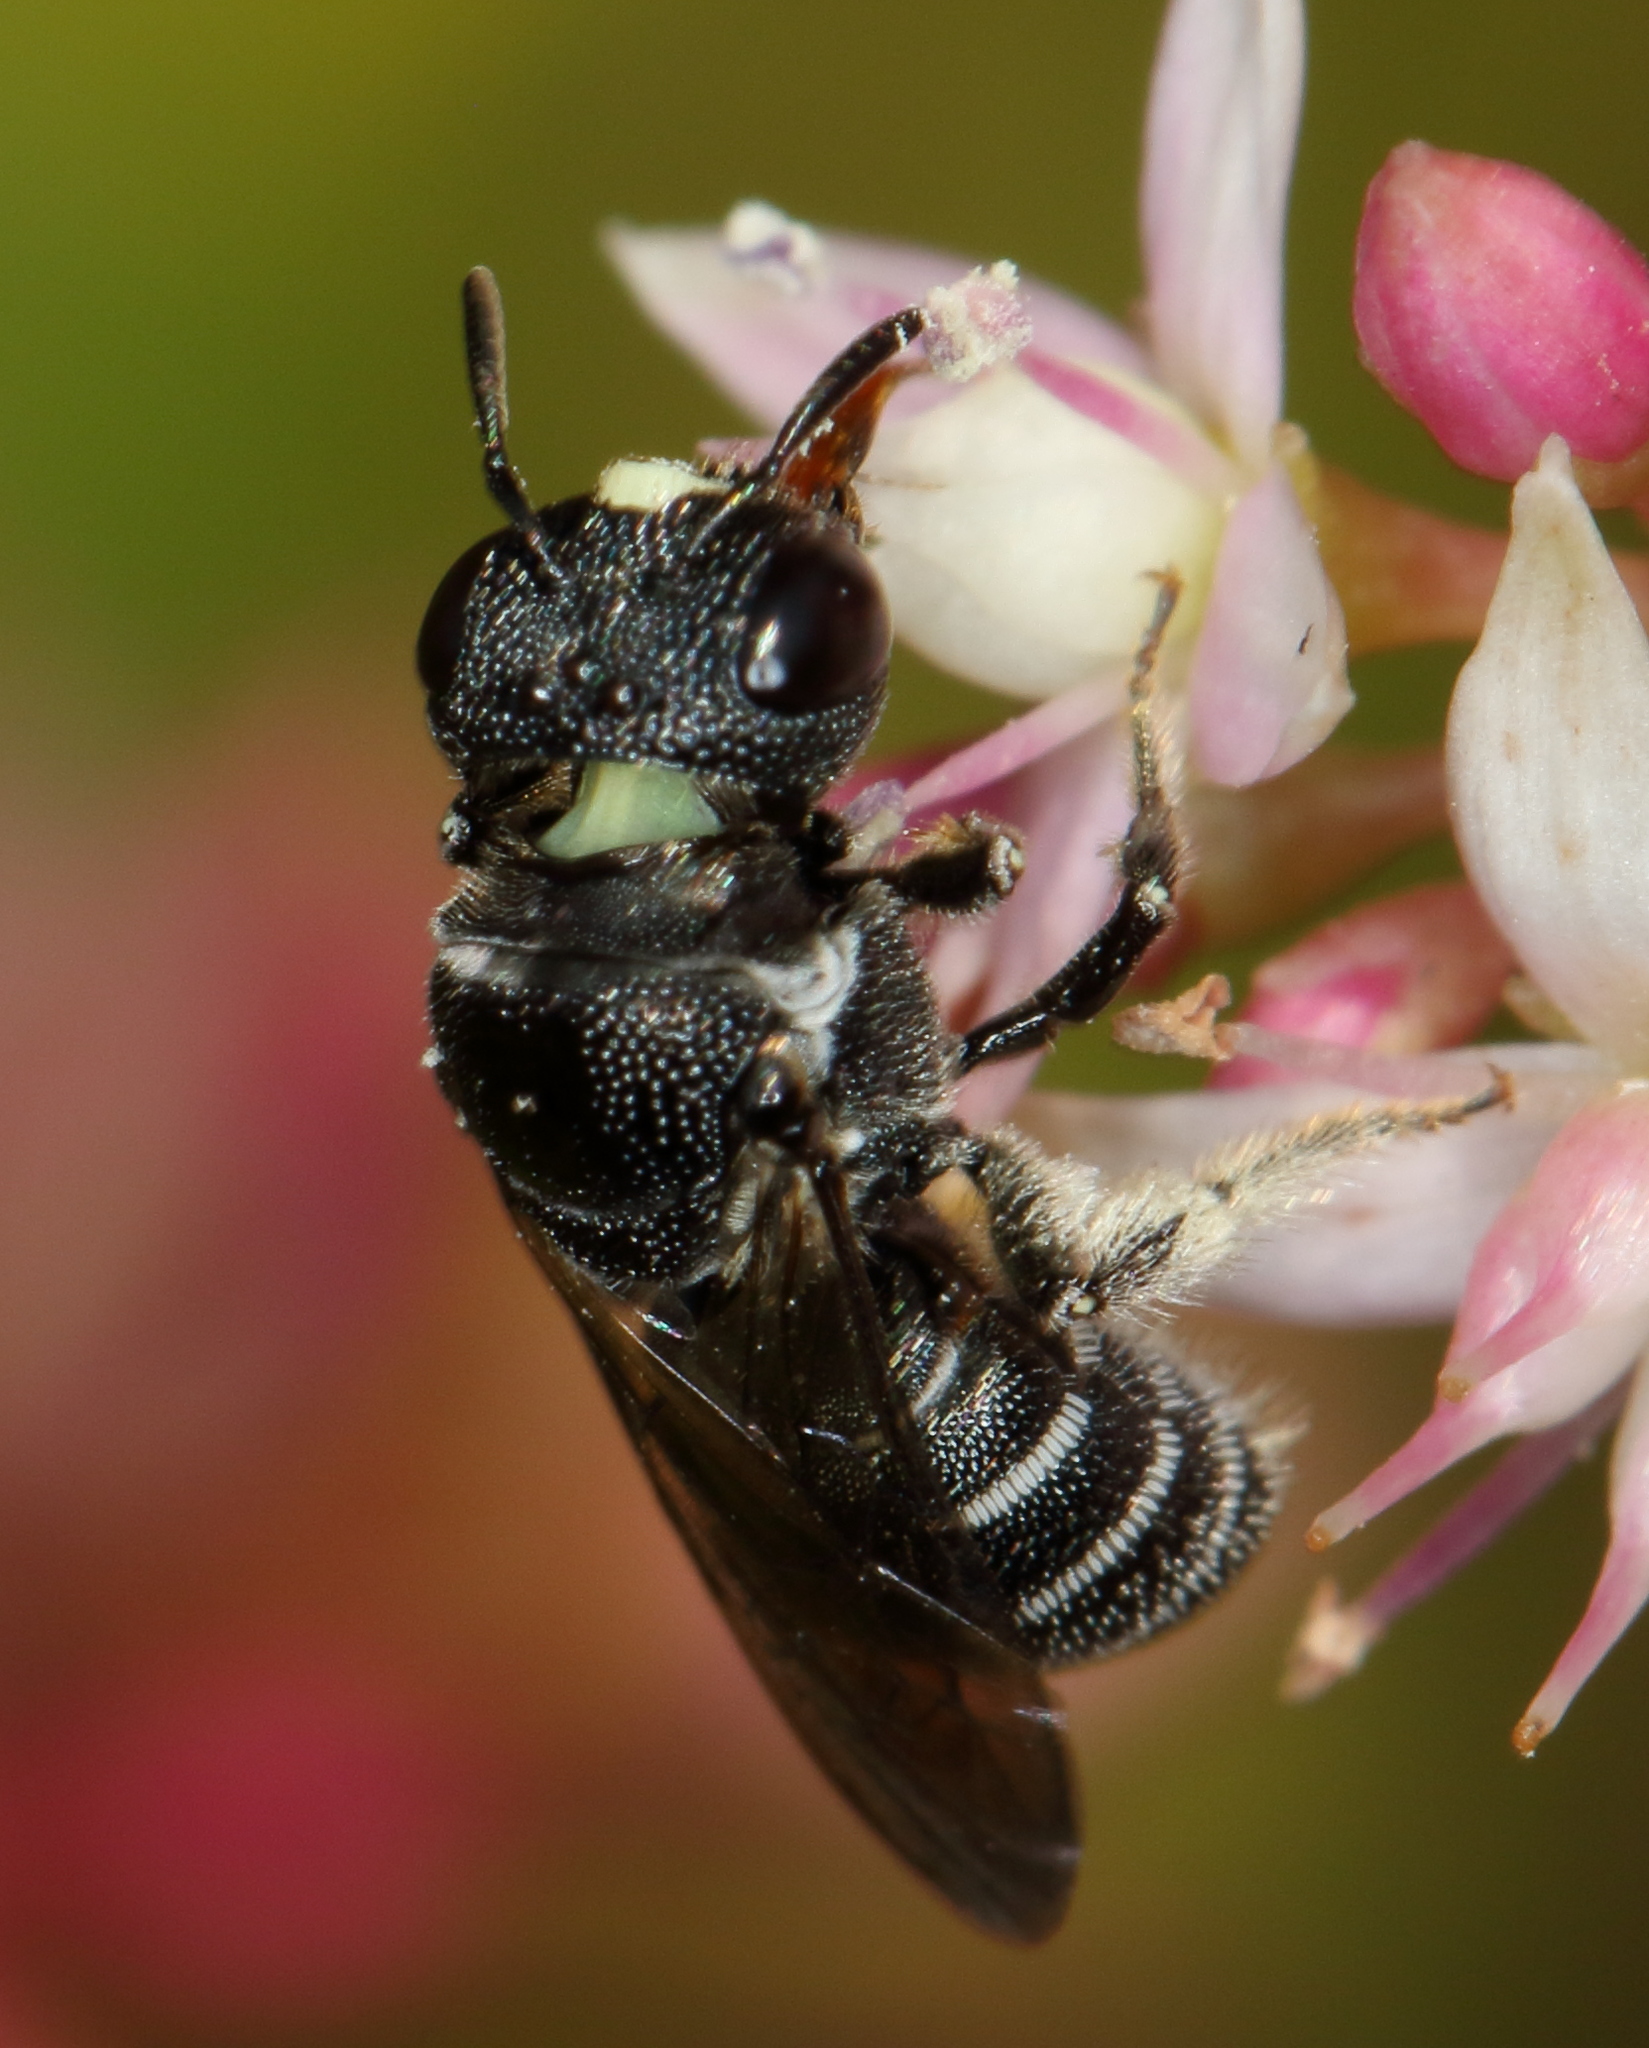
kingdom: Animalia
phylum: Arthropoda
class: Insecta
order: Hymenoptera
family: Apidae
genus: Ceratina
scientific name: Ceratina moerenhouti
